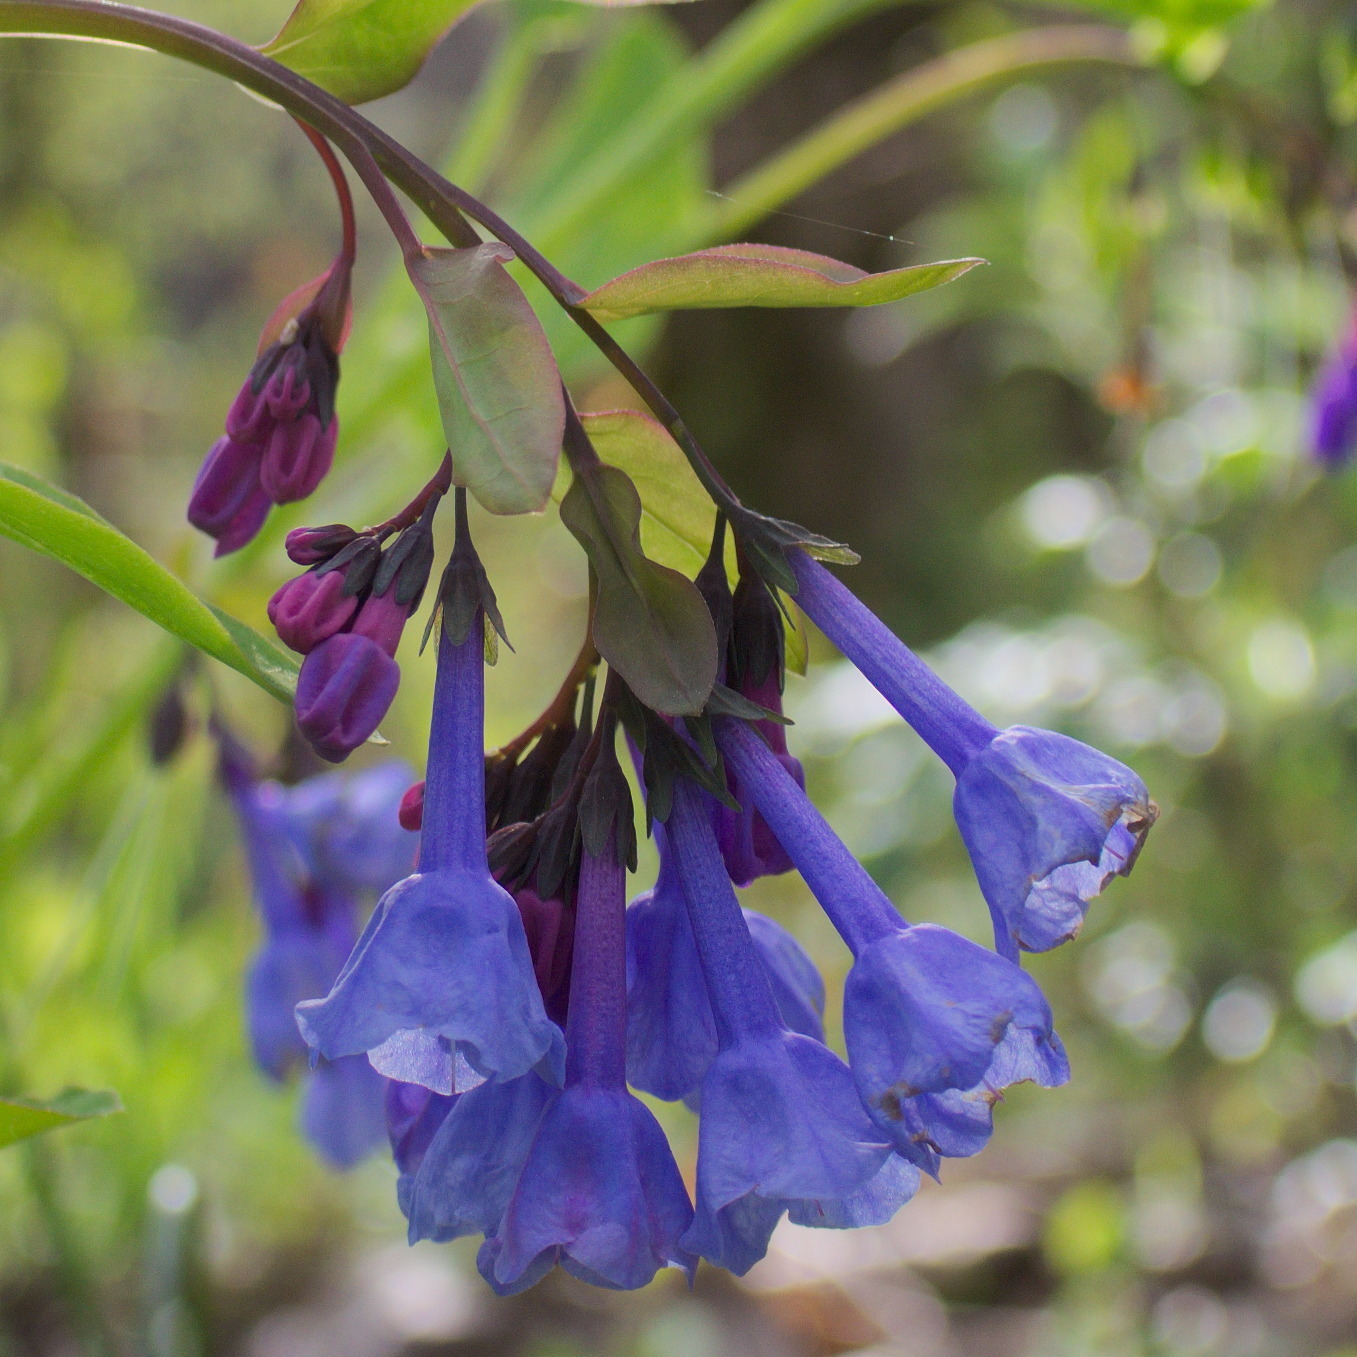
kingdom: Plantae
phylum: Tracheophyta
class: Magnoliopsida
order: Boraginales
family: Boraginaceae
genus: Mertensia
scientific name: Mertensia virginica
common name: Virginia bluebells
